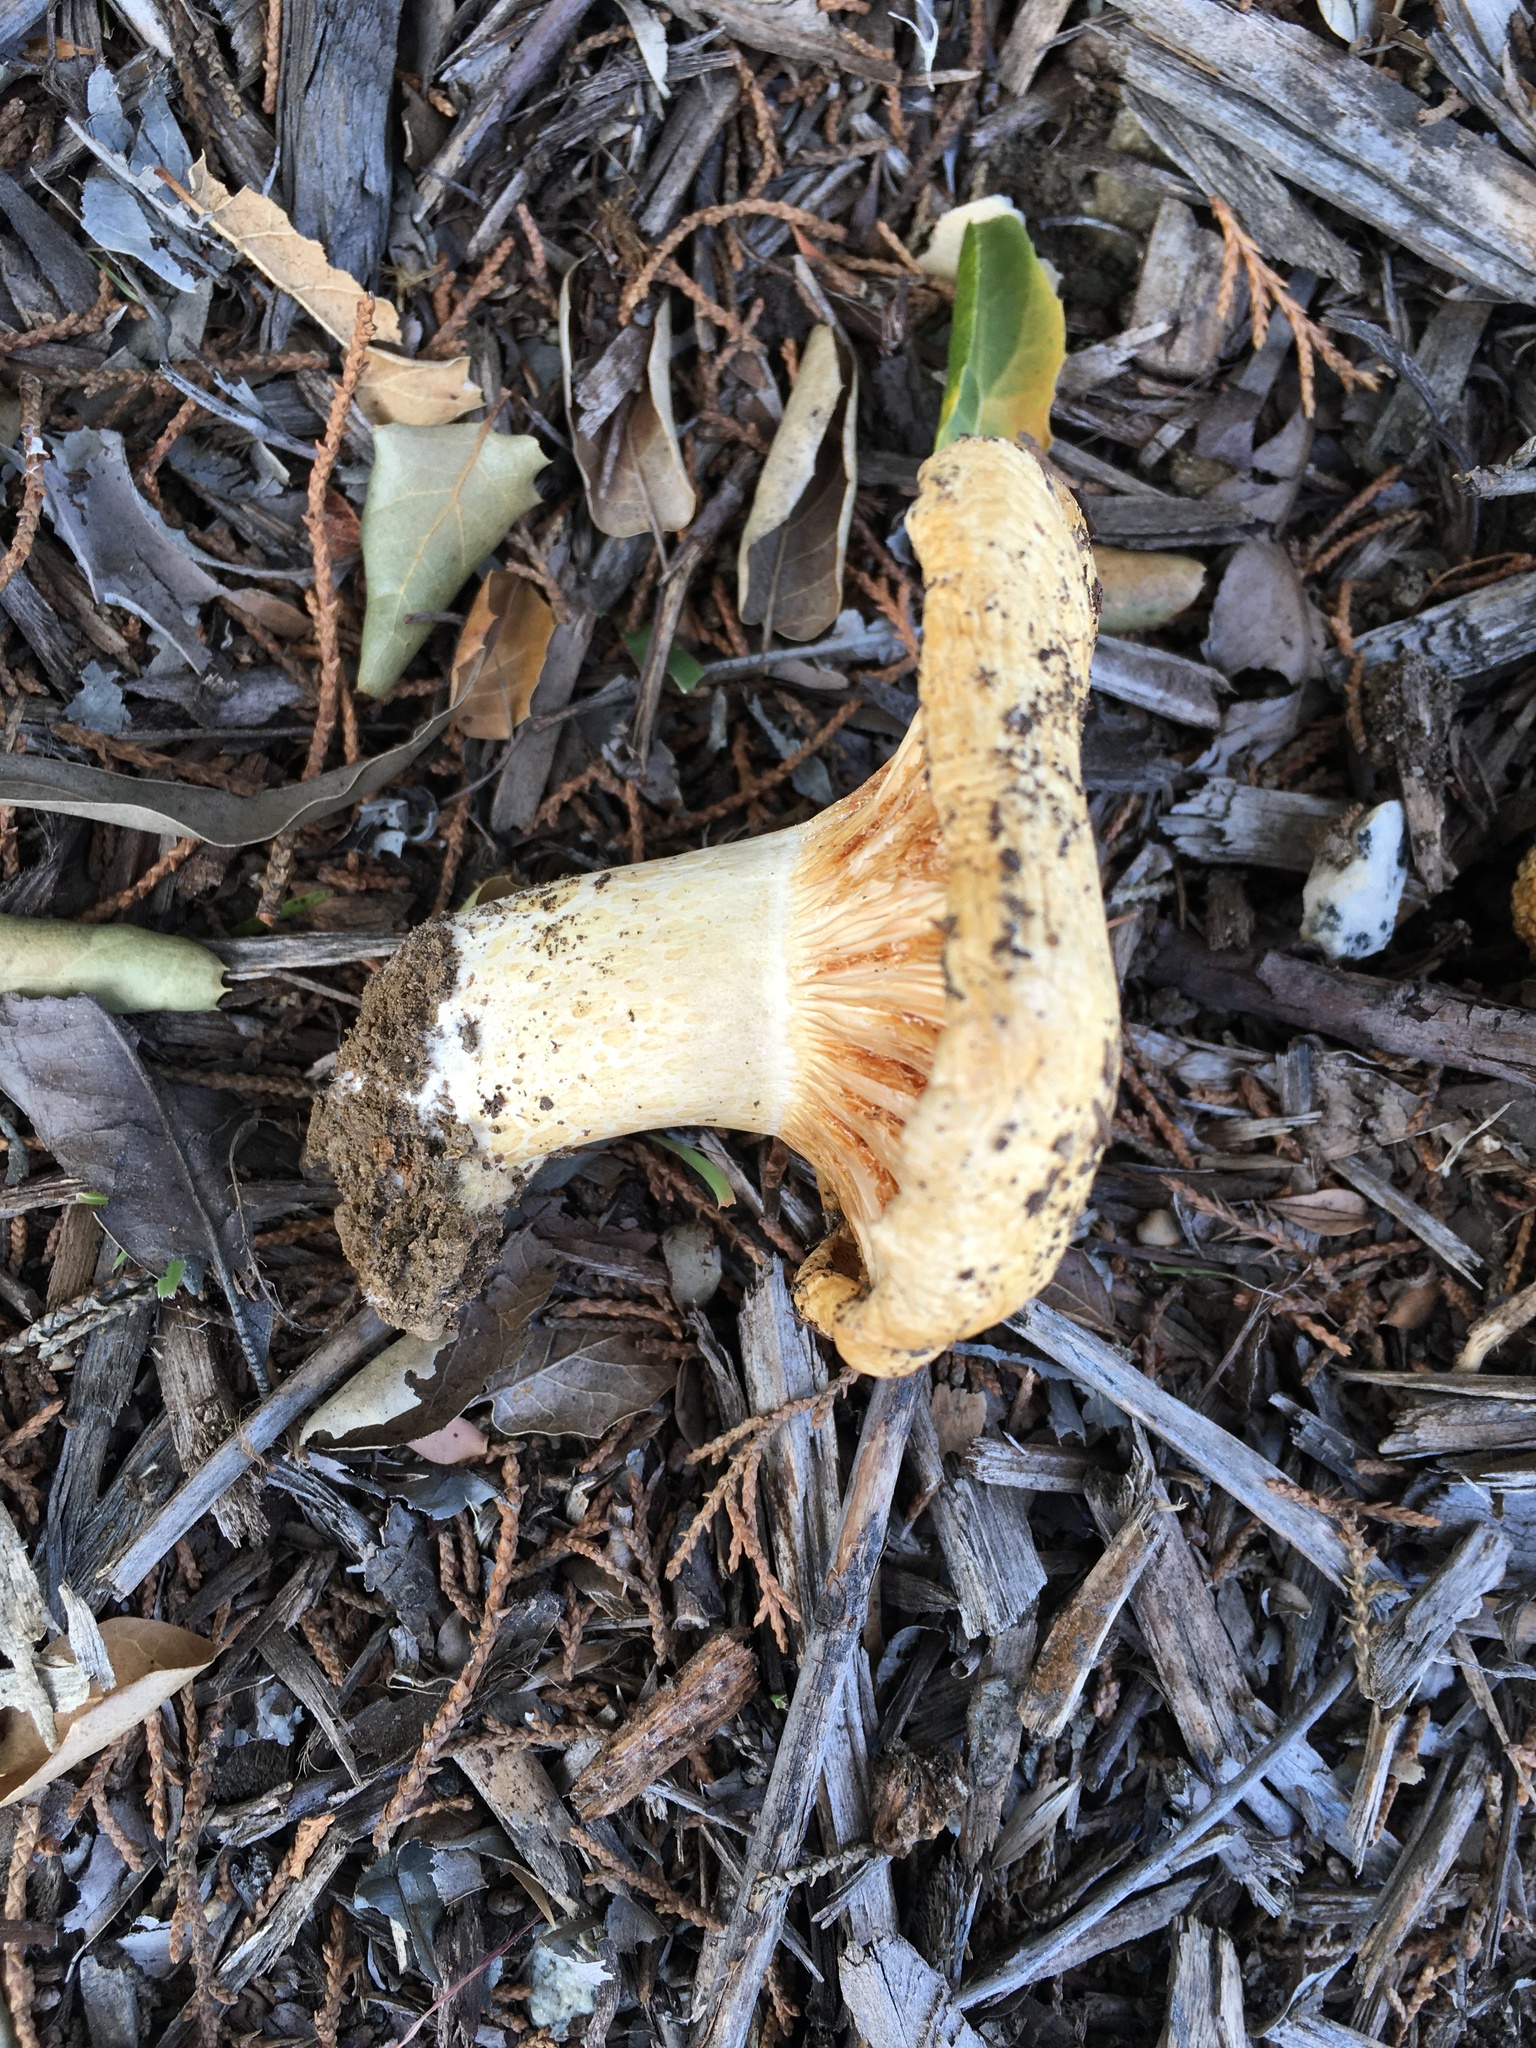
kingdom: Fungi
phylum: Basidiomycota
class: Agaricomycetes
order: Russulales
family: Russulaceae
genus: Lactarius
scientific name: Lactarius alnicola
